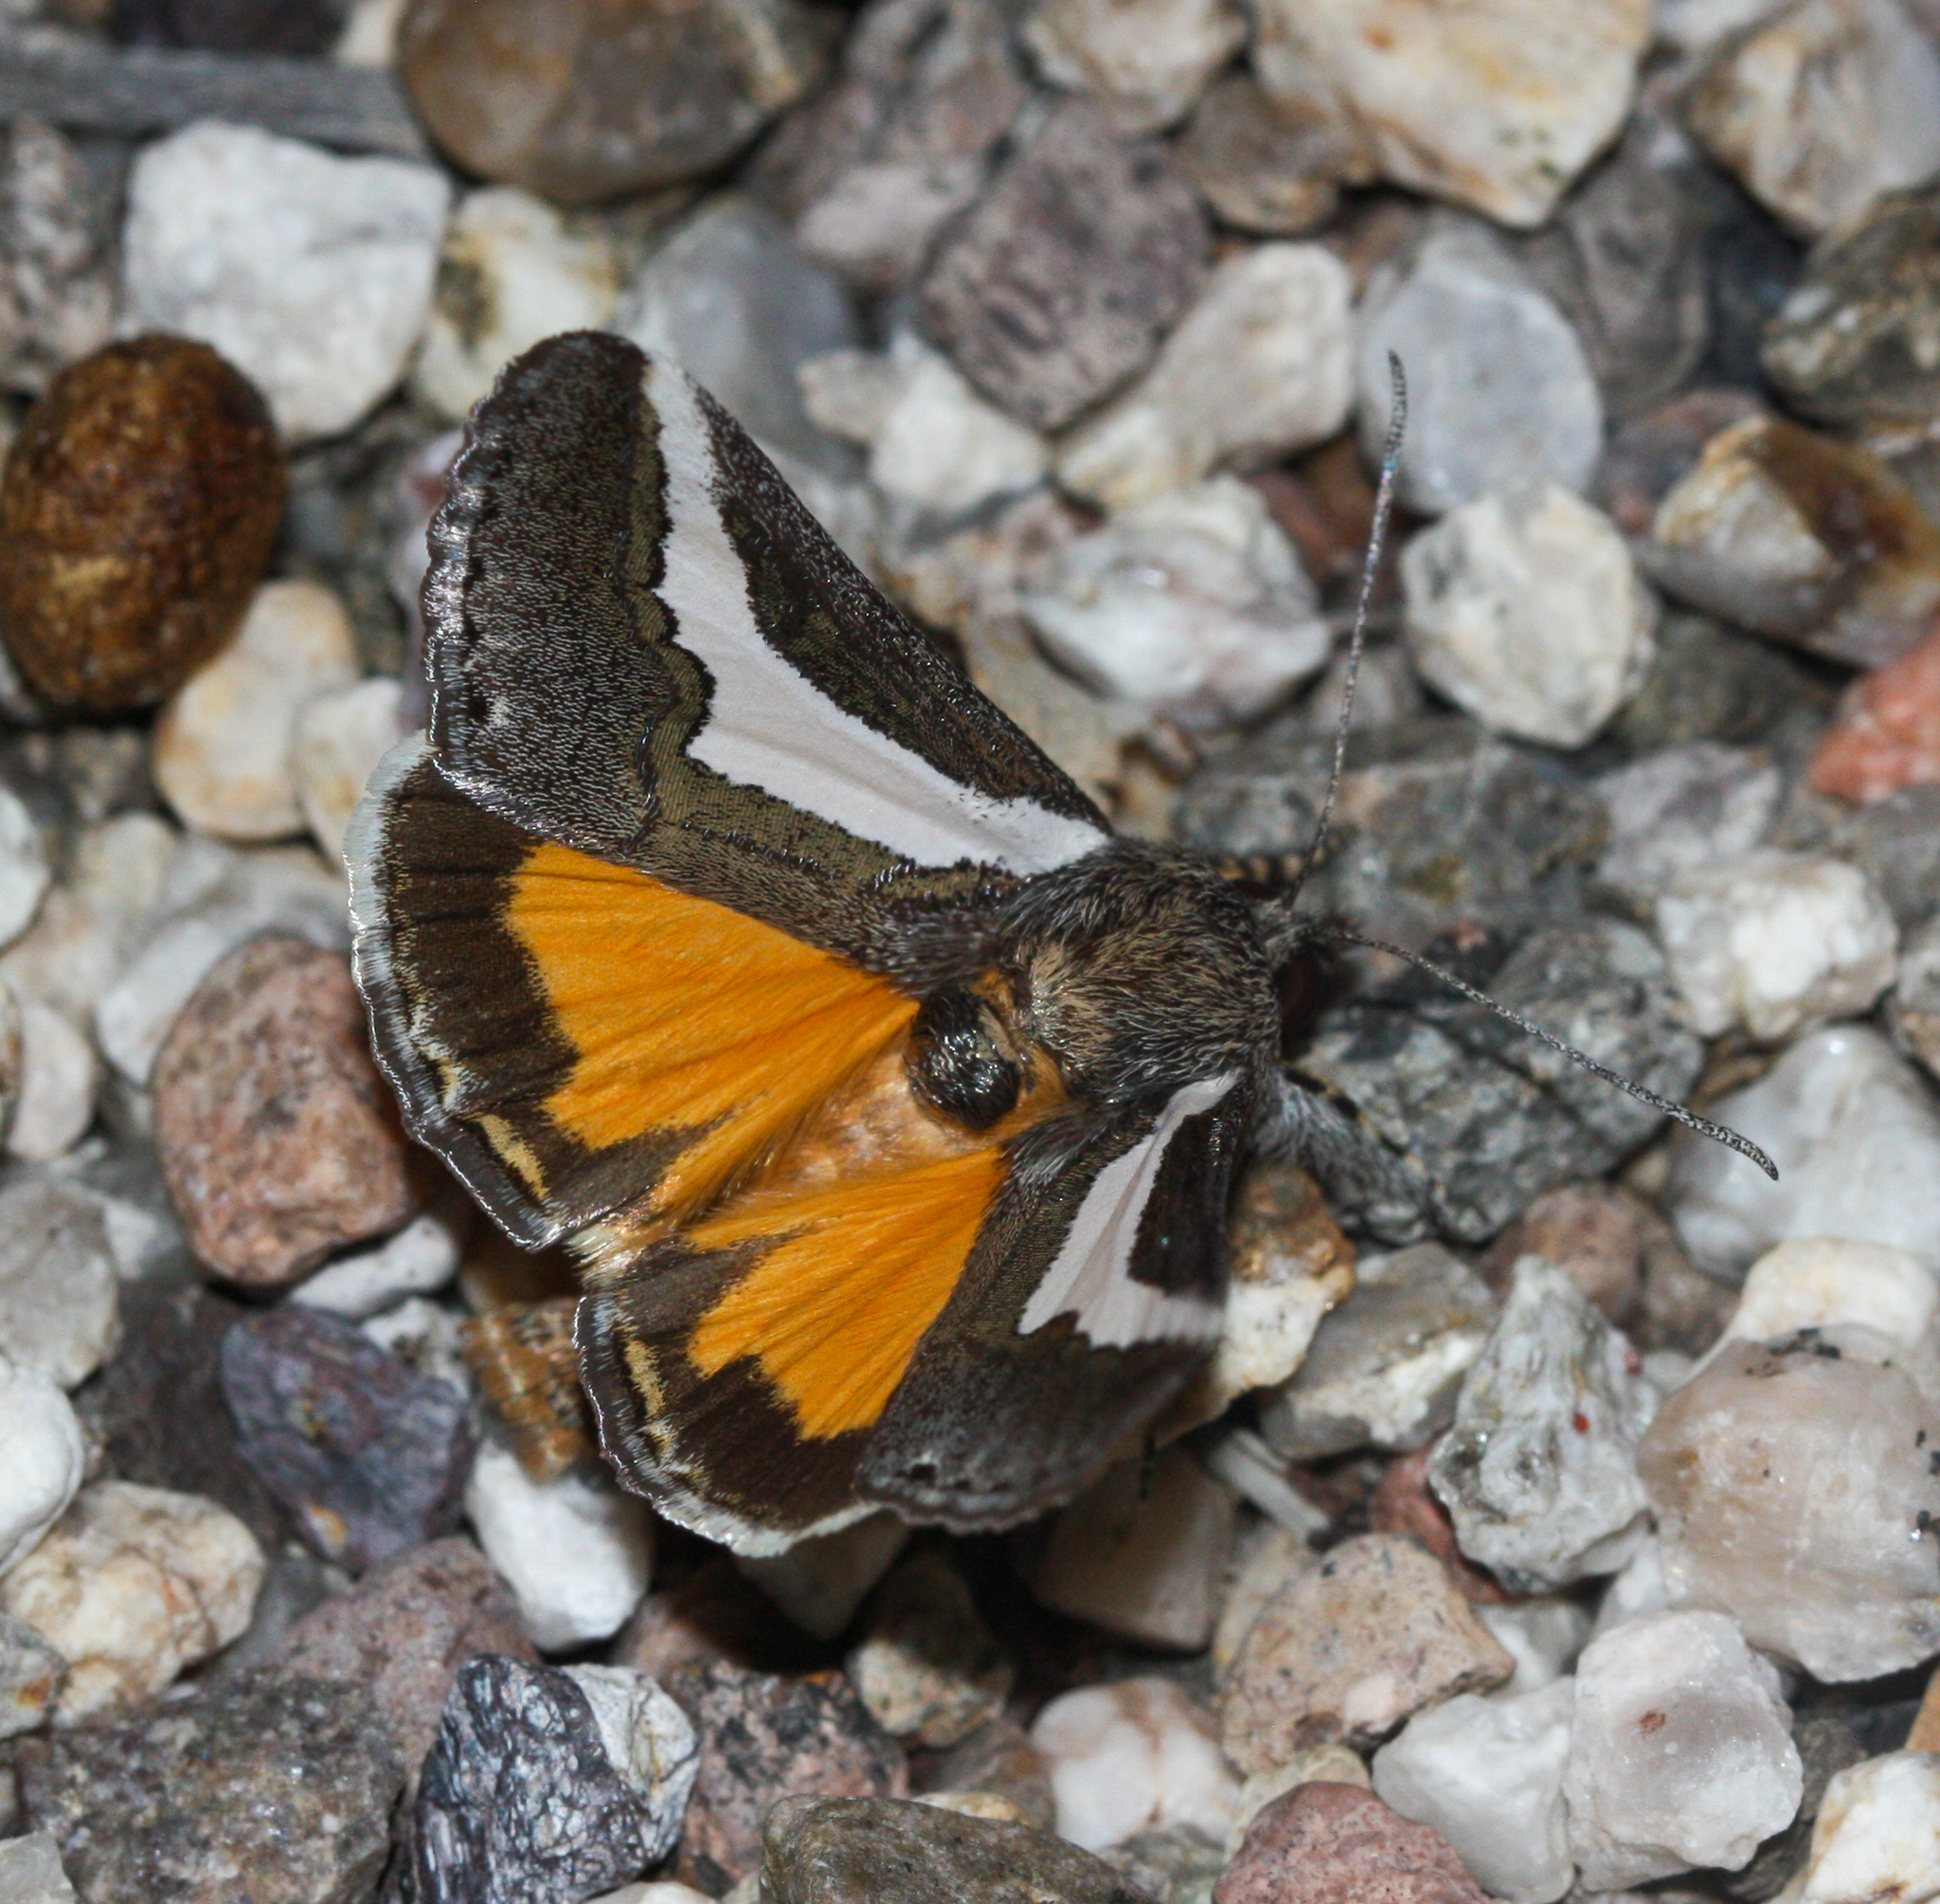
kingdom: Animalia
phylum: Arthropoda
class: Insecta
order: Lepidoptera
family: Noctuidae
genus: Euscirrhopterus
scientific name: Euscirrhopterus cosyra
